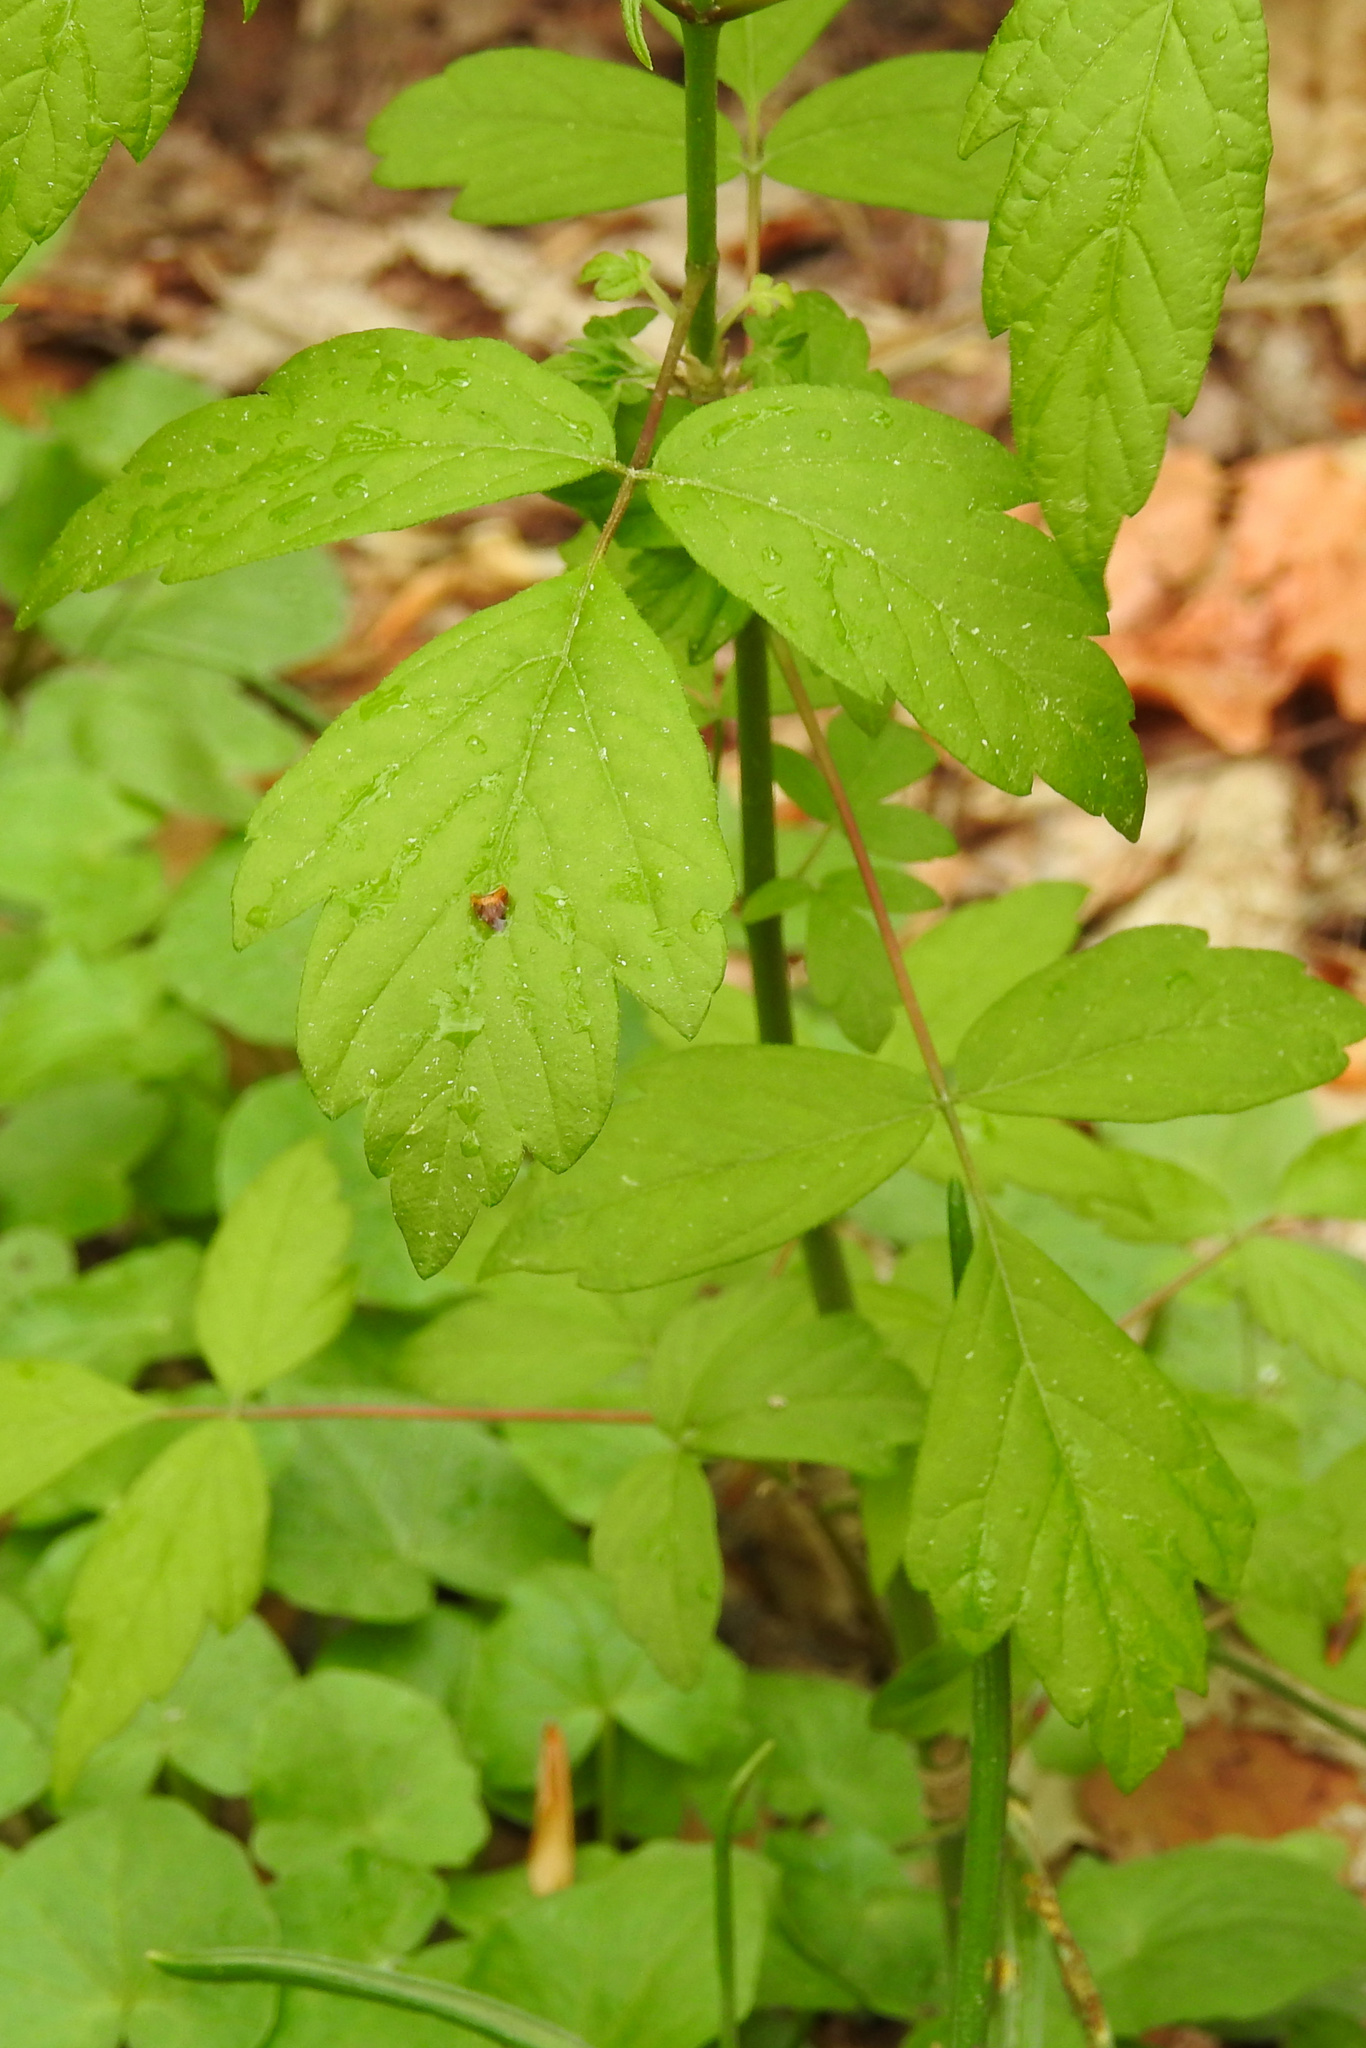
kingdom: Plantae
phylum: Tracheophyta
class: Magnoliopsida
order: Sapindales
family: Sapindaceae
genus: Acer
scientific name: Acer negundo
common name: Ashleaf maple
